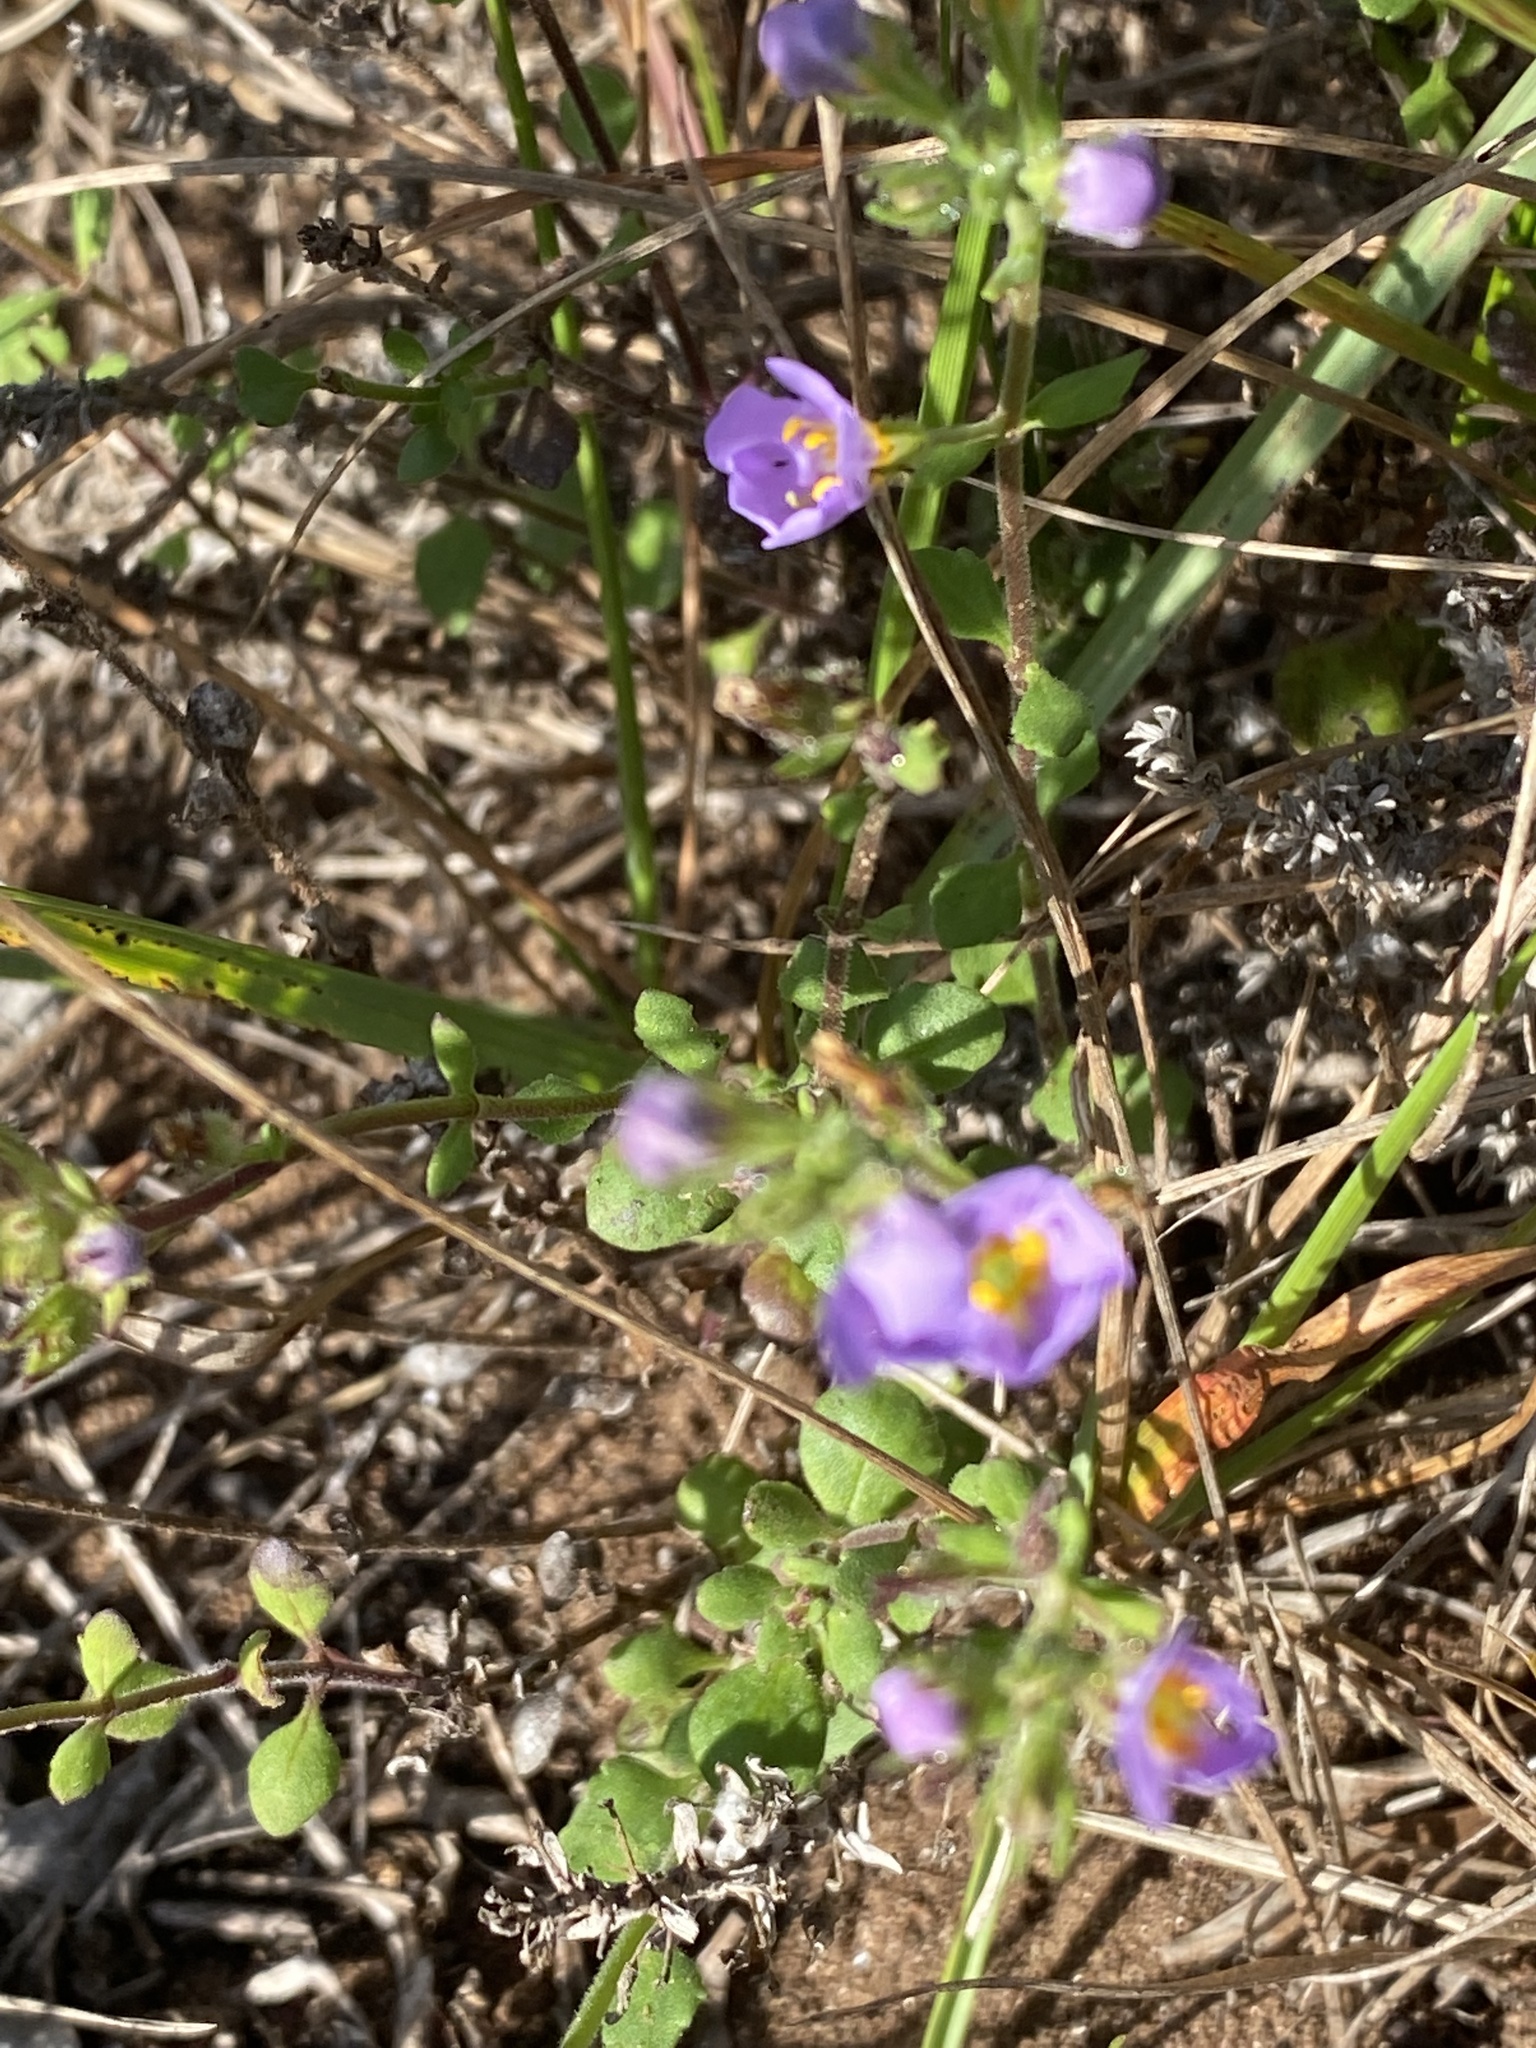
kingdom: Plantae
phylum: Tracheophyta
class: Magnoliopsida
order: Lamiales
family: Scrophulariaceae
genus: Chaenostoma
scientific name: Chaenostoma caeruleum
